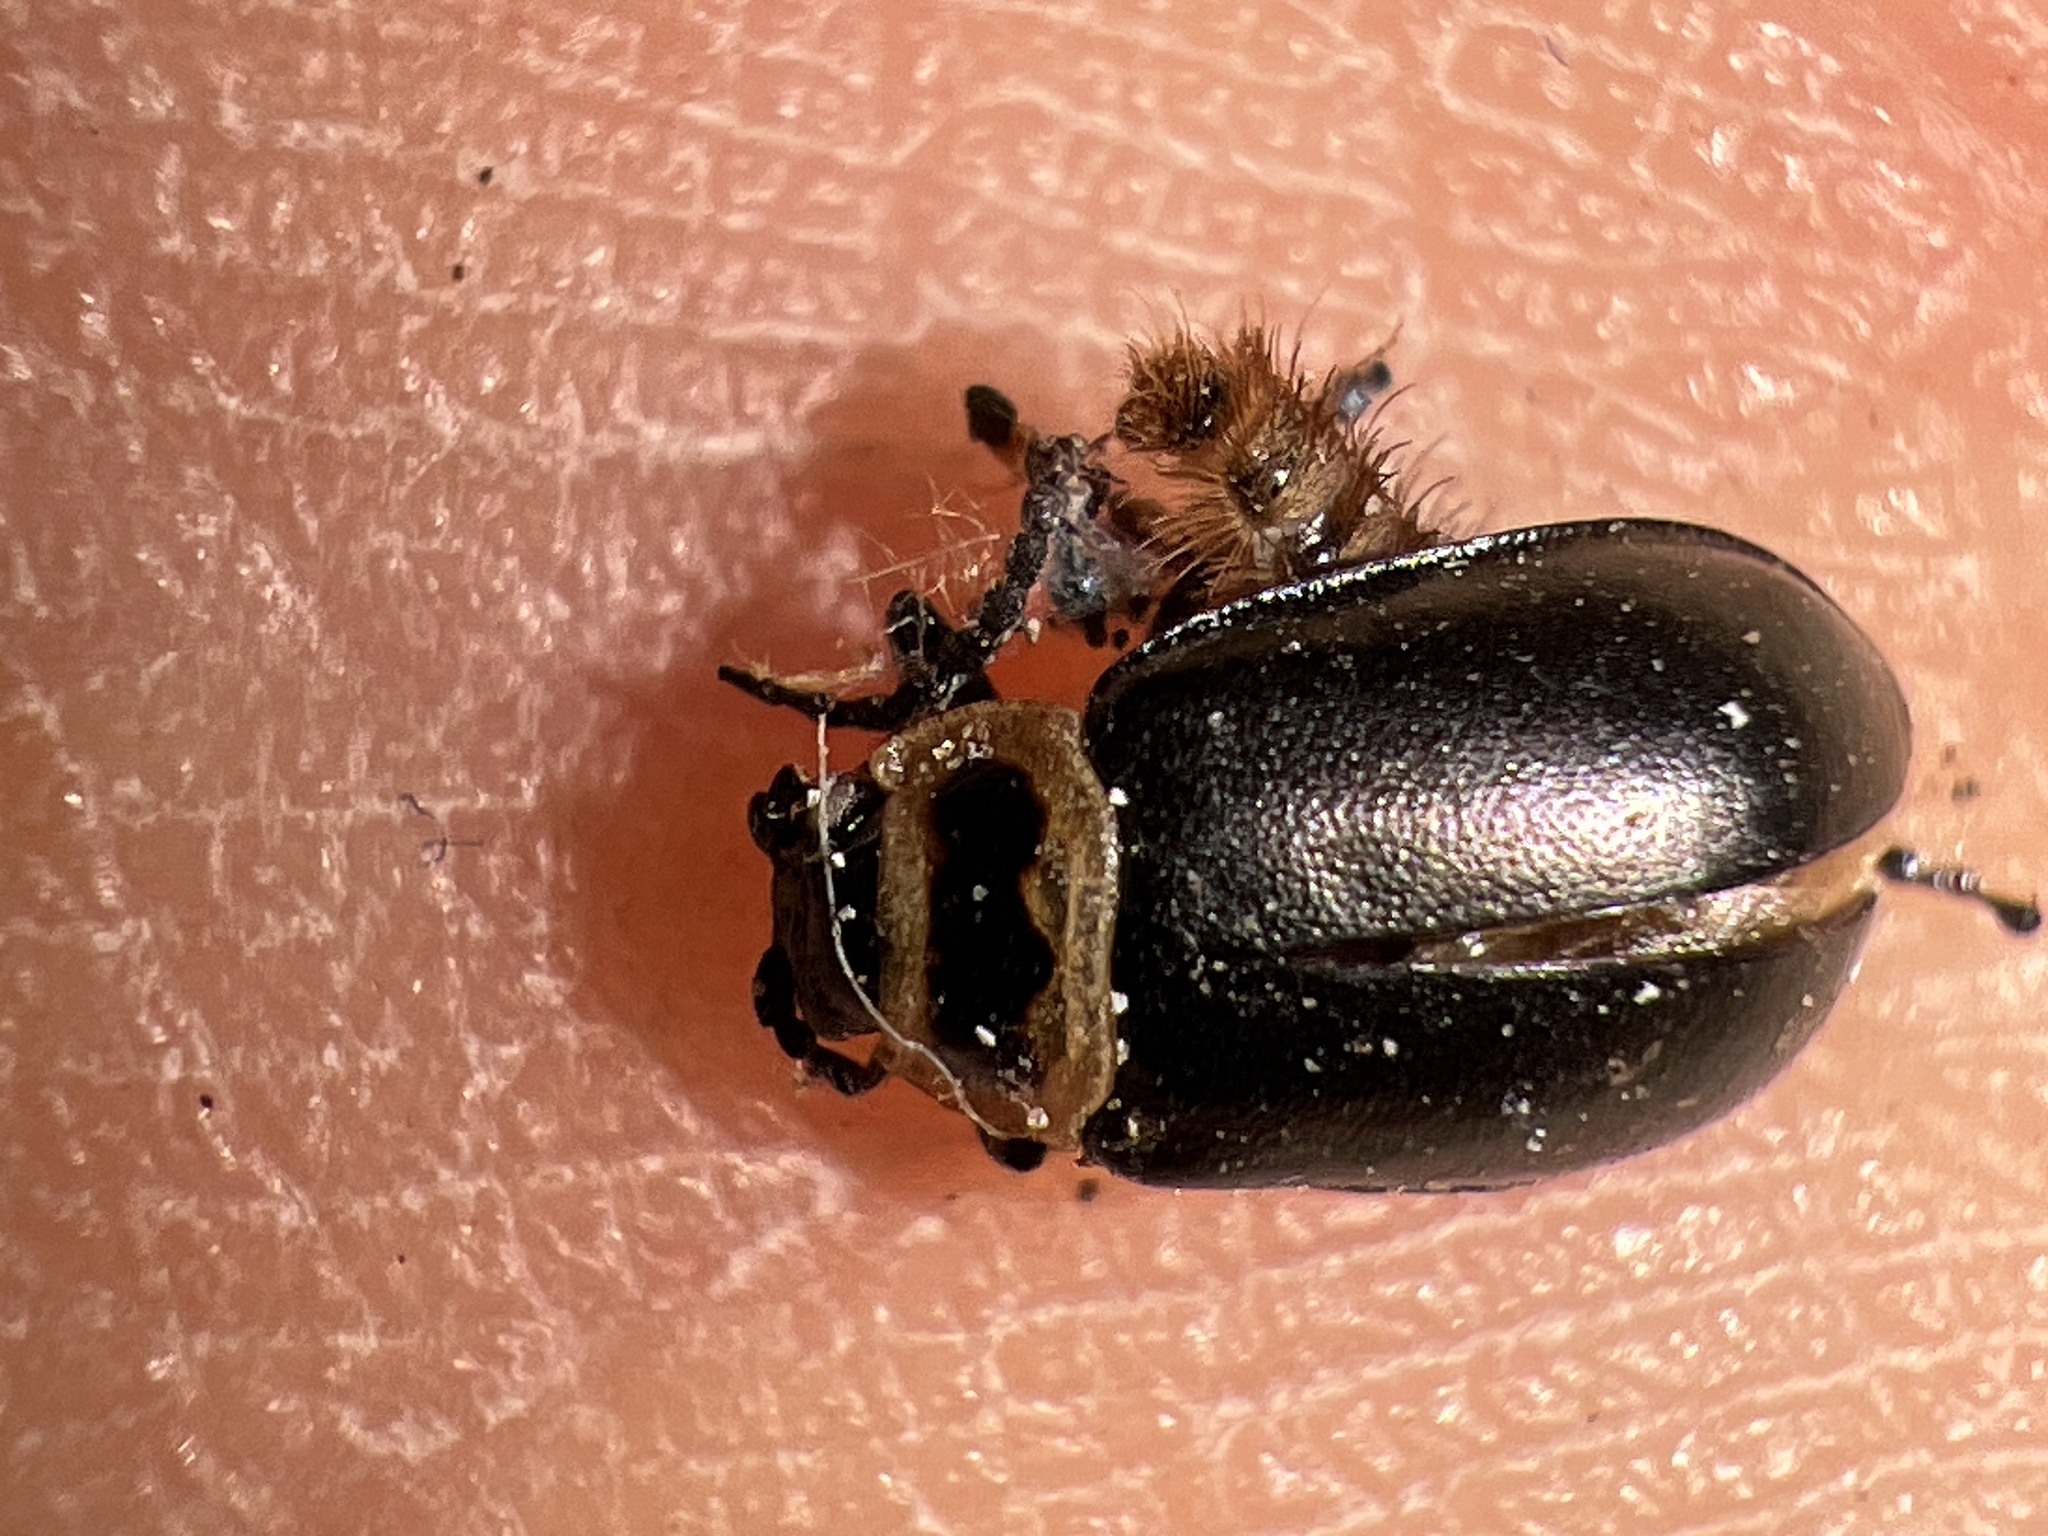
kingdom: Animalia
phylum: Arthropoda
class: Insecta
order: Coleoptera
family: Chrysomelidae
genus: Kuschelina
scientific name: Kuschelina vians
